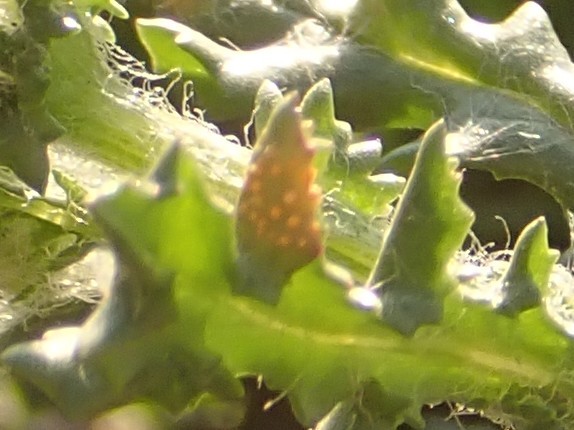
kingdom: Fungi
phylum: Basidiomycota
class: Pucciniomycetes
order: Pucciniales
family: Pucciniaceae
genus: Puccinia
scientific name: Puccinia lagenophorae
